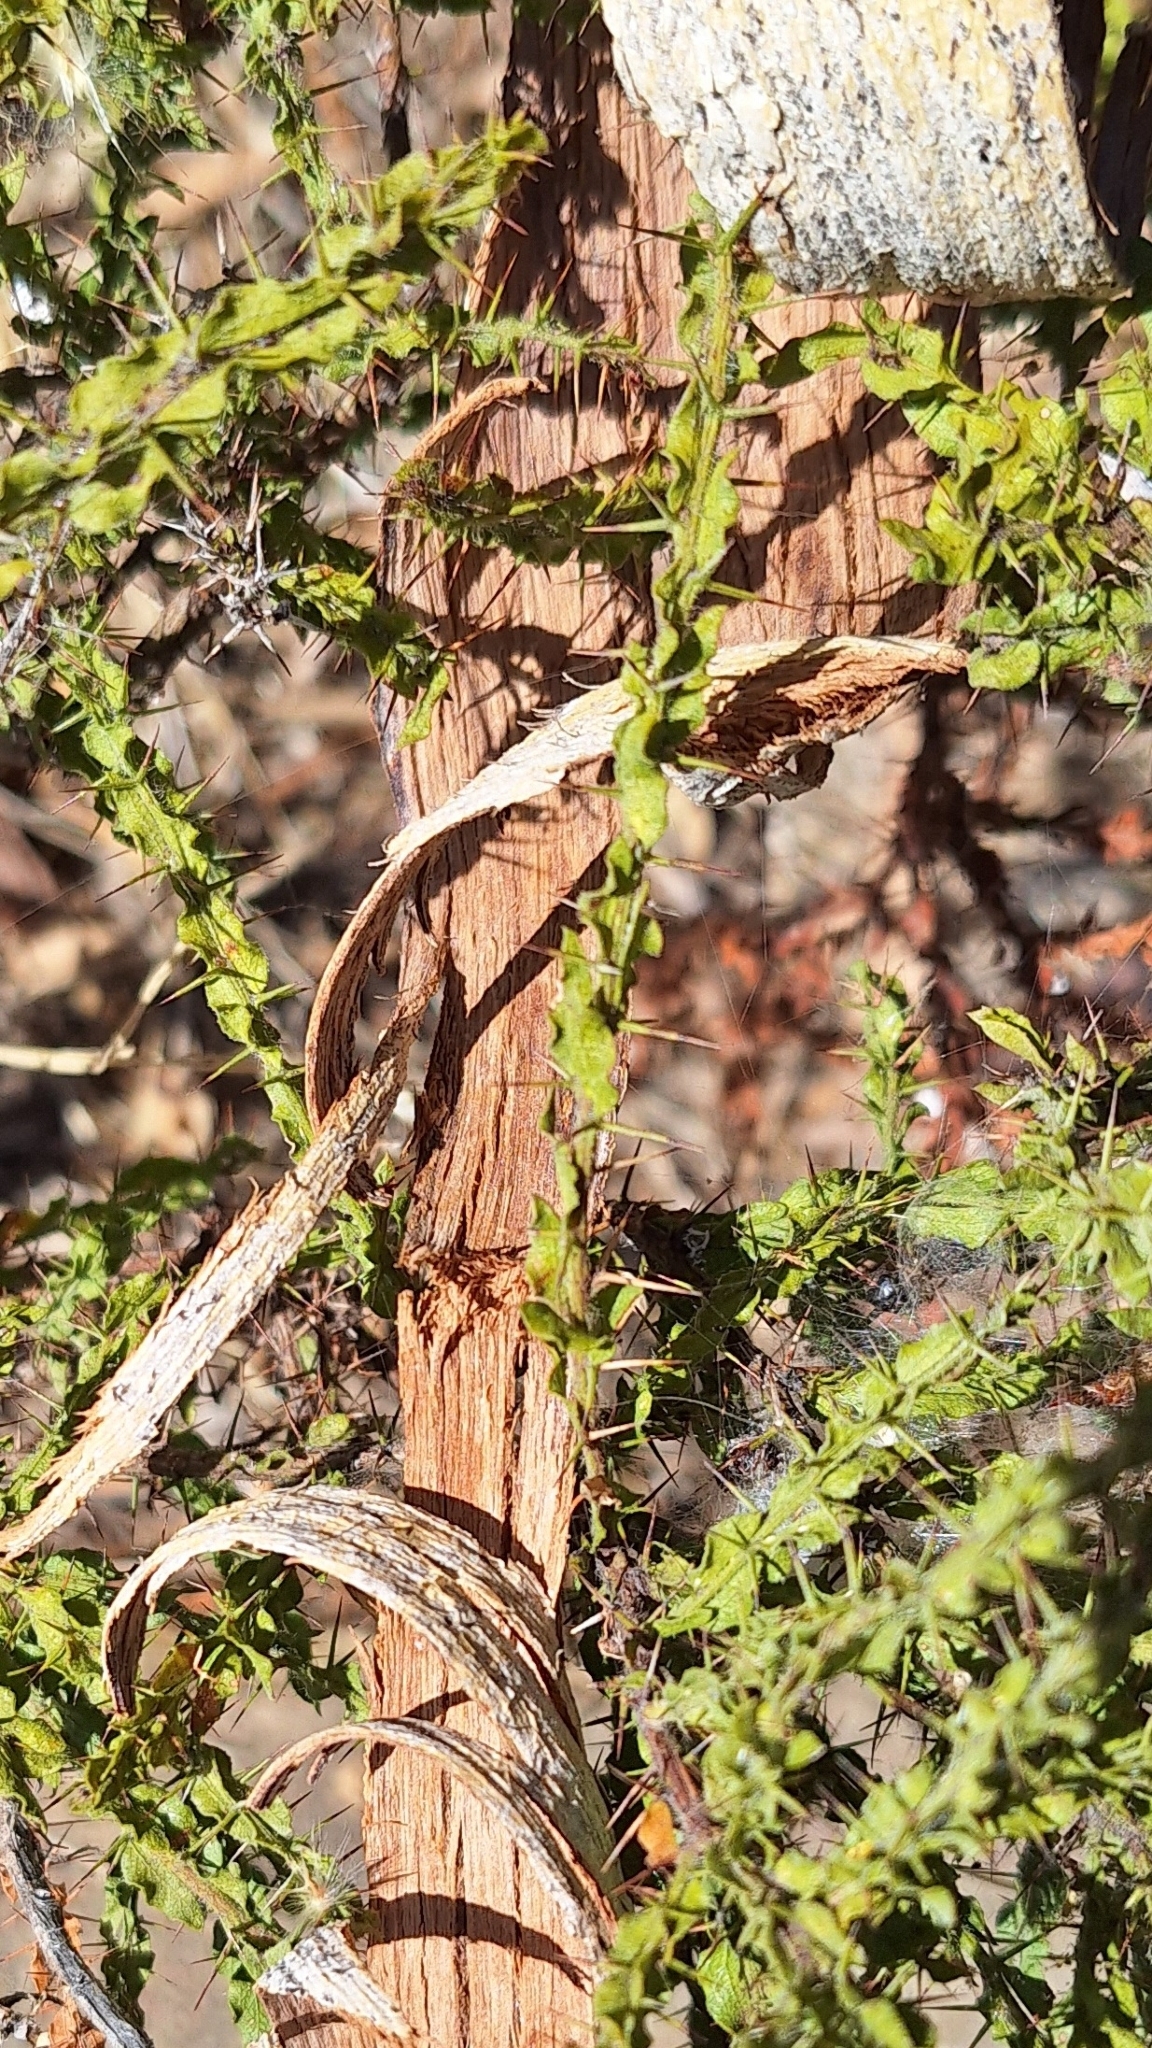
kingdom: Plantae
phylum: Tracheophyta
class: Magnoliopsida
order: Fabales
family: Fabaceae
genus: Acacia
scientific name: Acacia paradoxa
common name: Paradox acacia
